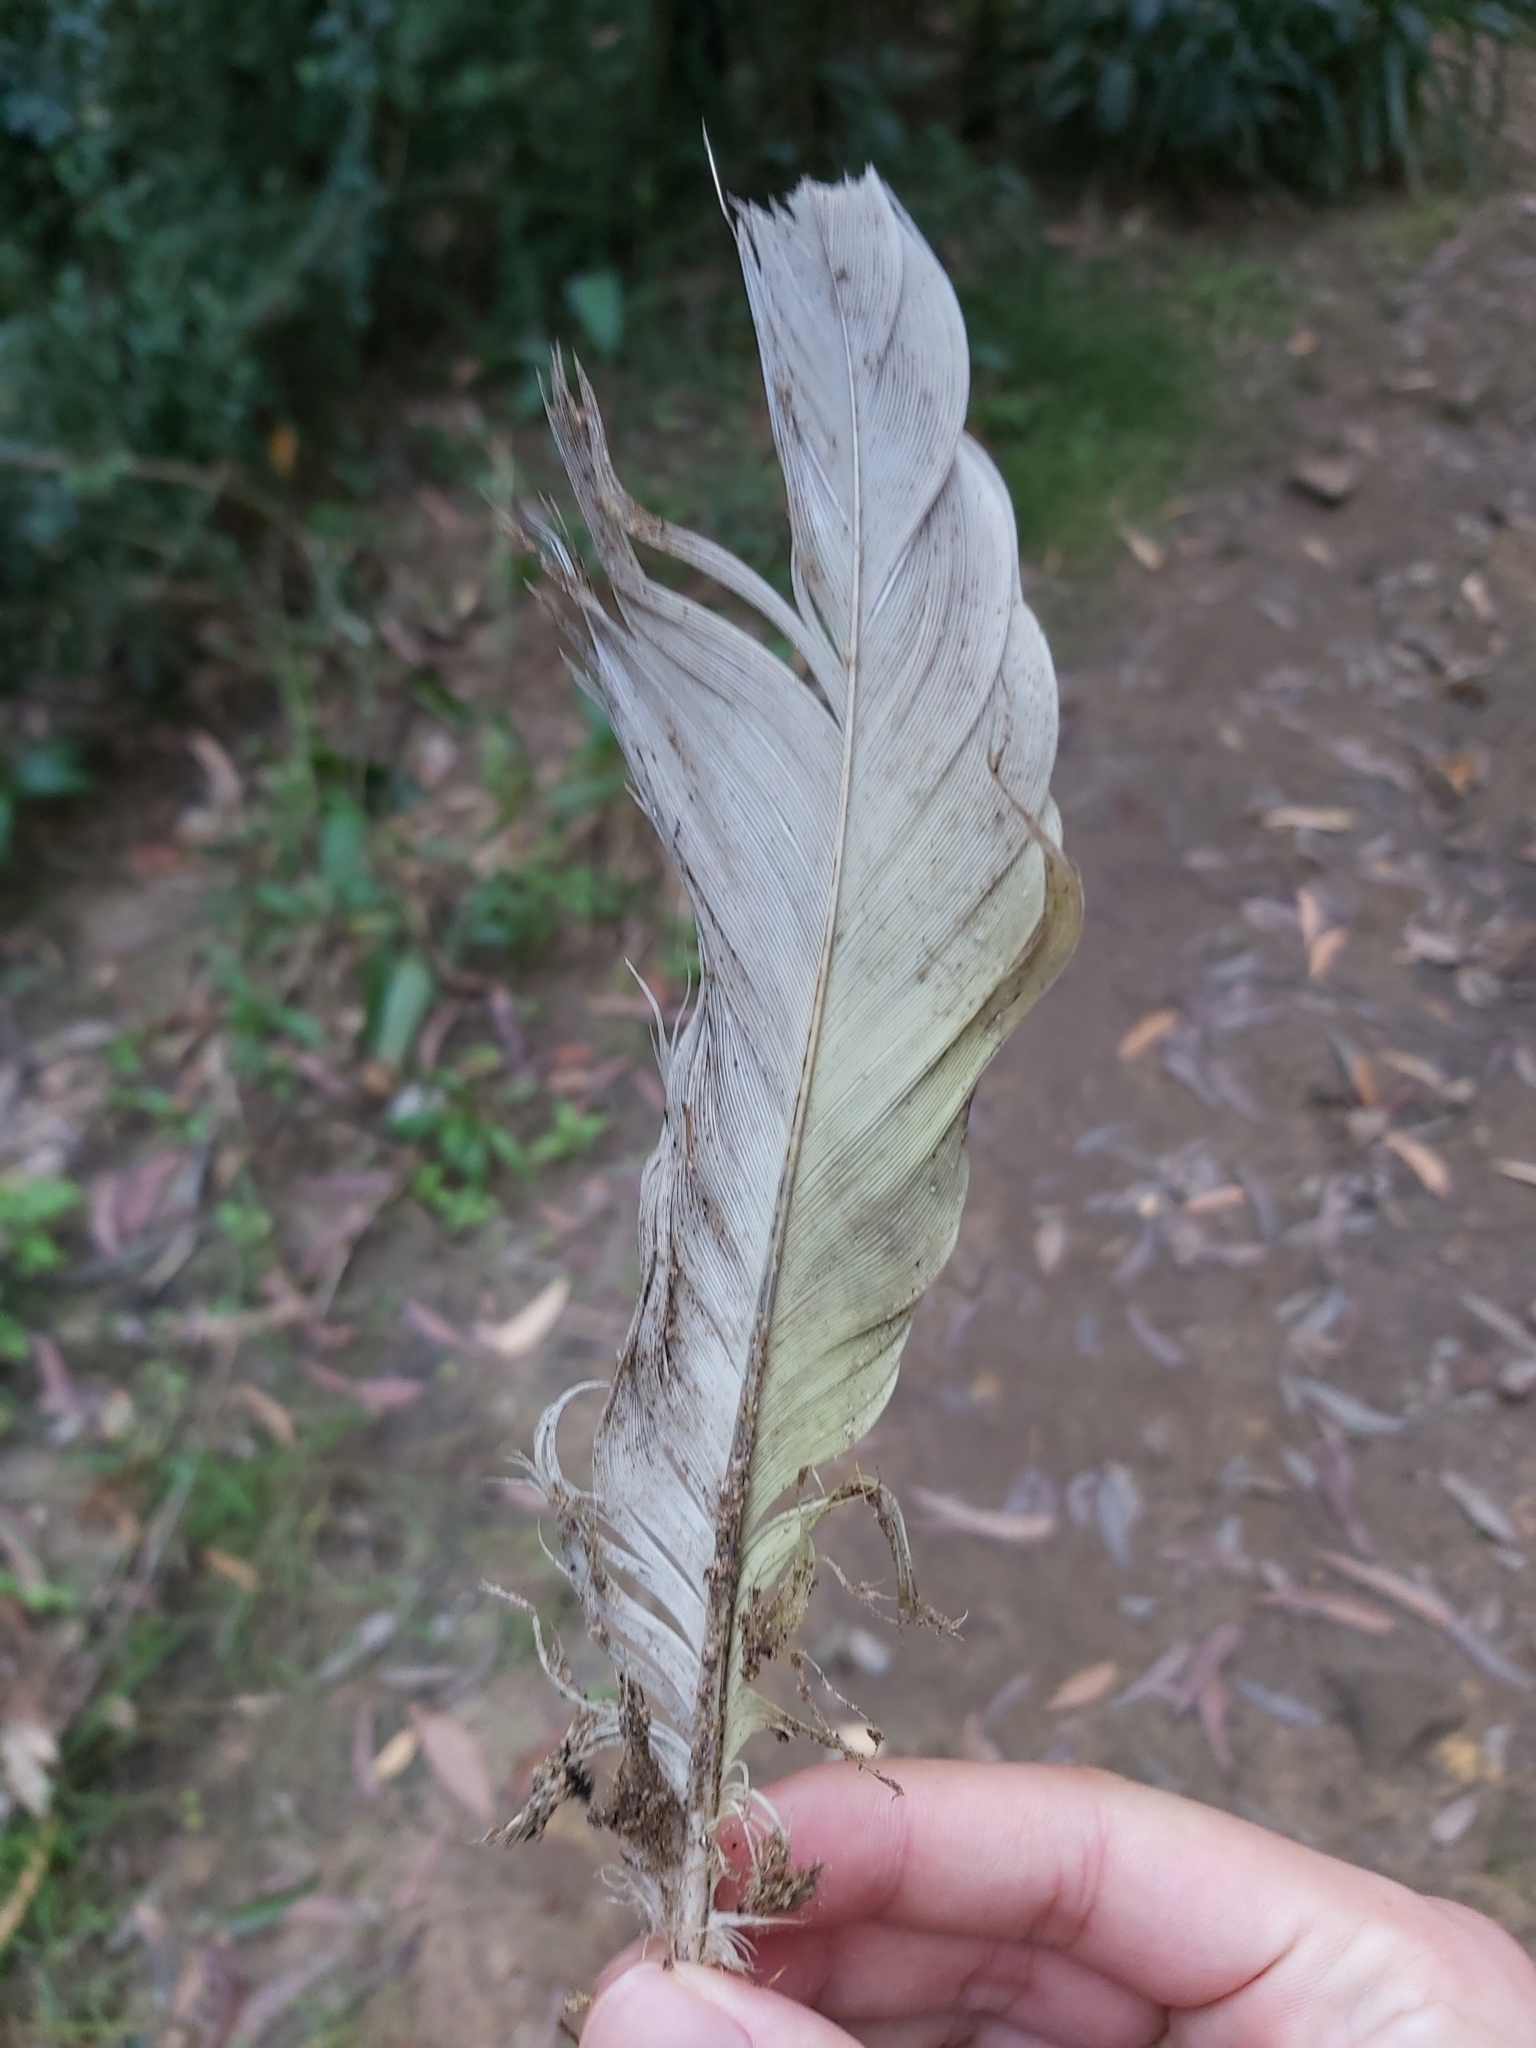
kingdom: Animalia
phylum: Chordata
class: Aves
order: Psittaciformes
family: Psittacidae
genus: Cacatua
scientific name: Cacatua galerita
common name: Sulphur-crested cockatoo
